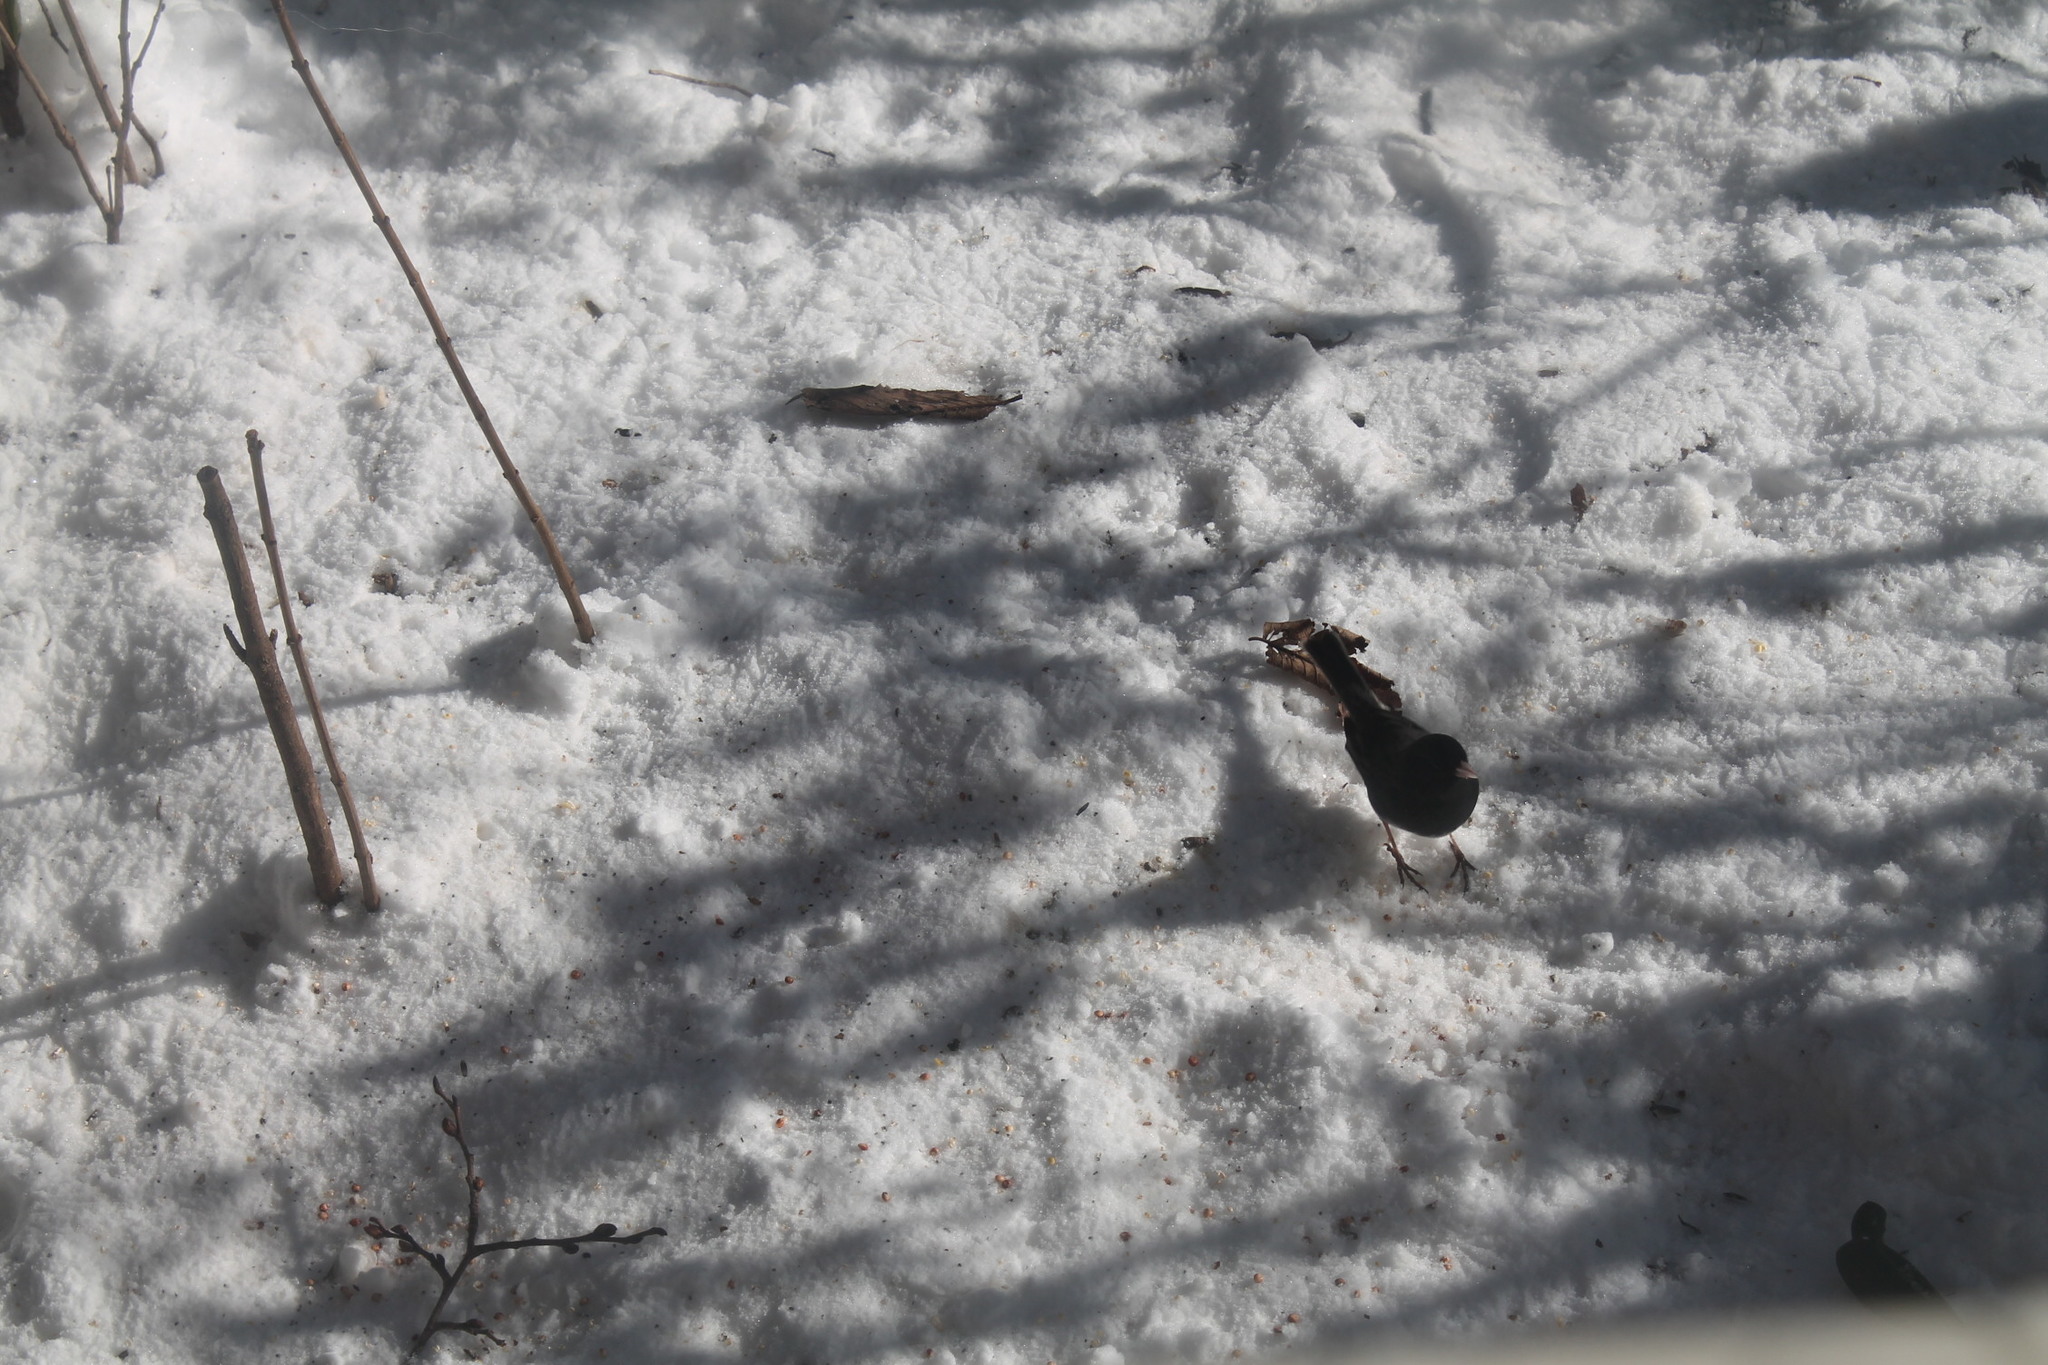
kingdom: Animalia
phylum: Chordata
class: Aves
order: Passeriformes
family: Passerellidae
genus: Junco
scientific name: Junco hyemalis
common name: Dark-eyed junco
